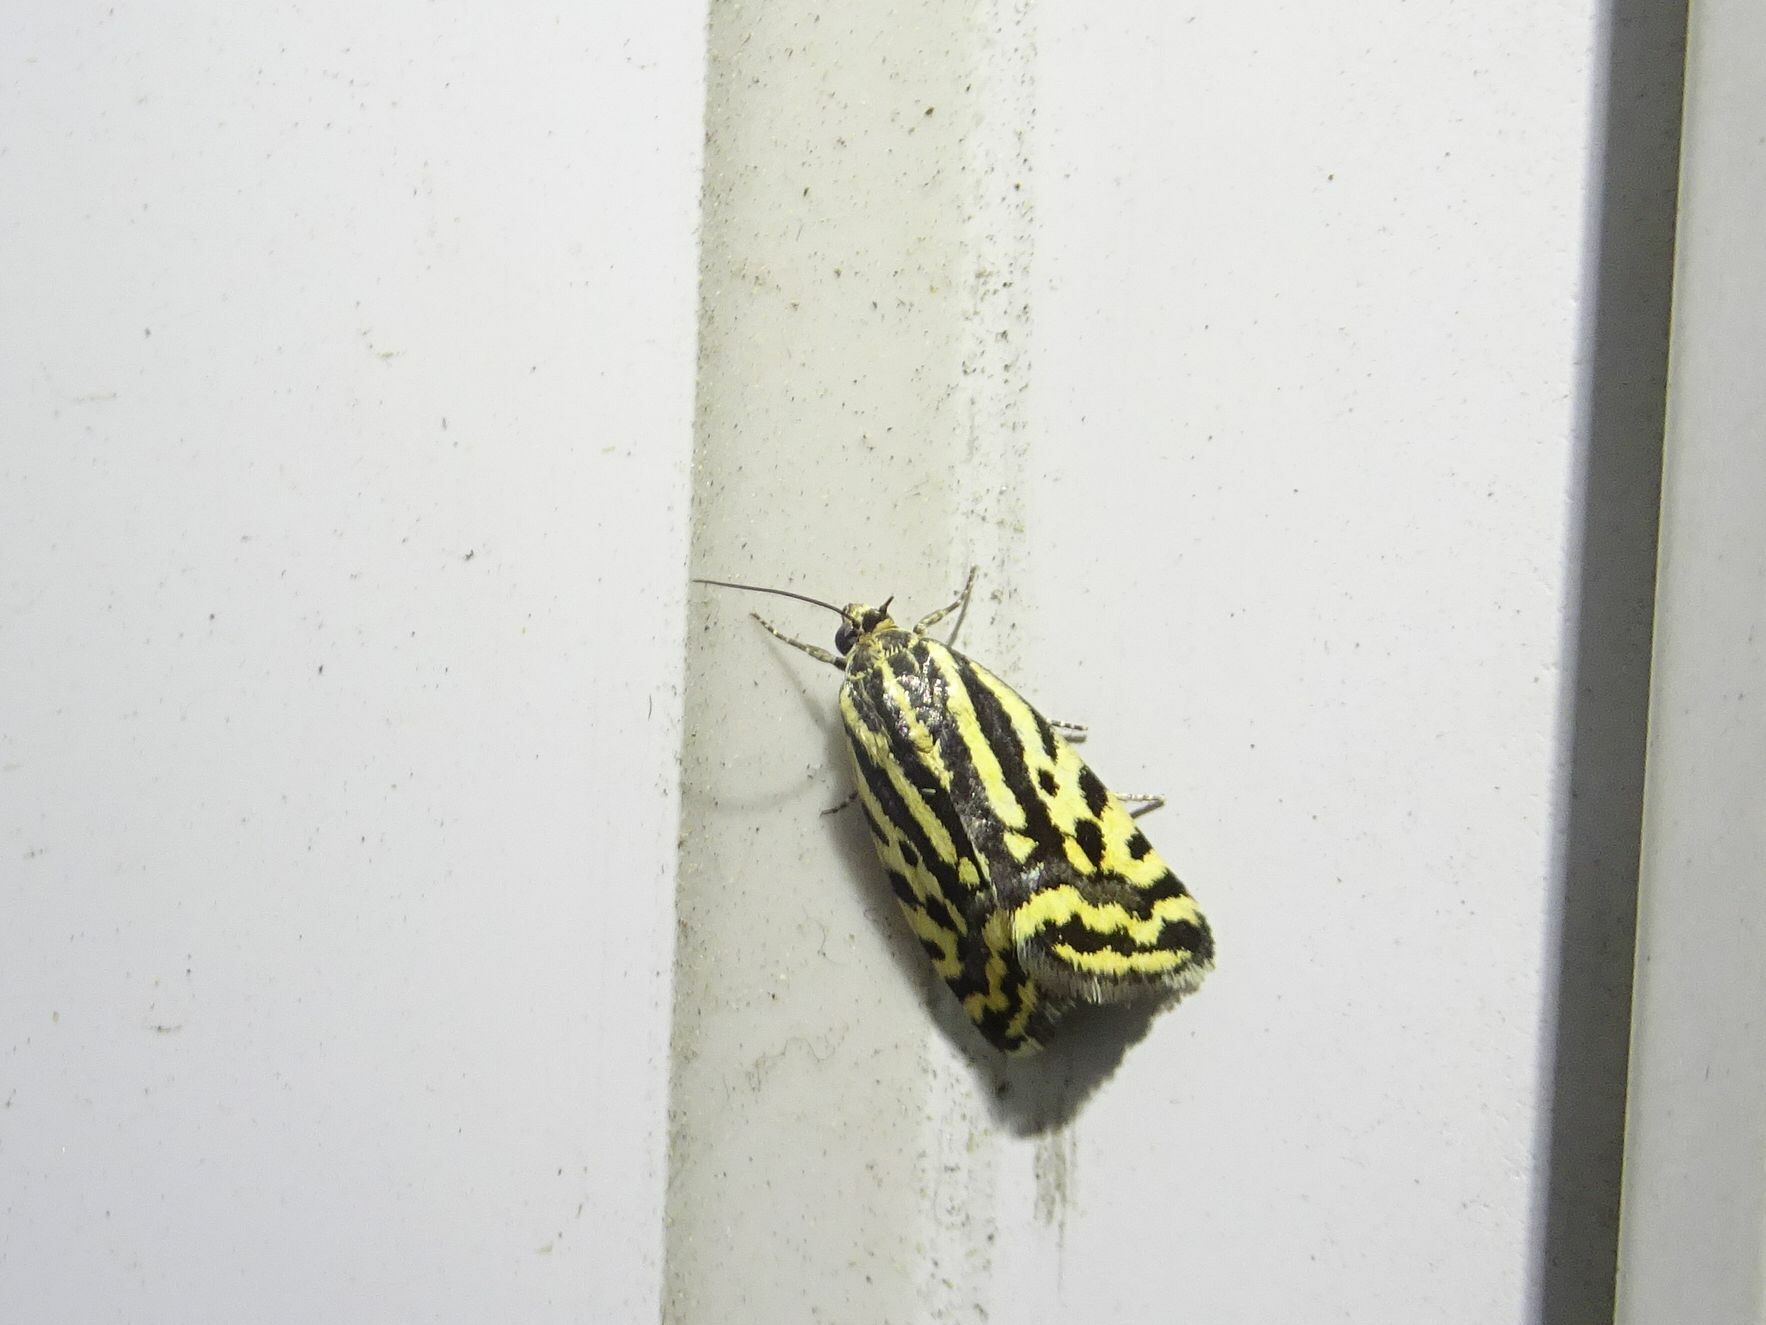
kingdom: Animalia
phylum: Arthropoda
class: Insecta
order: Lepidoptera
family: Noctuidae
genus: Acontia
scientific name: Acontia trabealis
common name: Spotted sulphur
